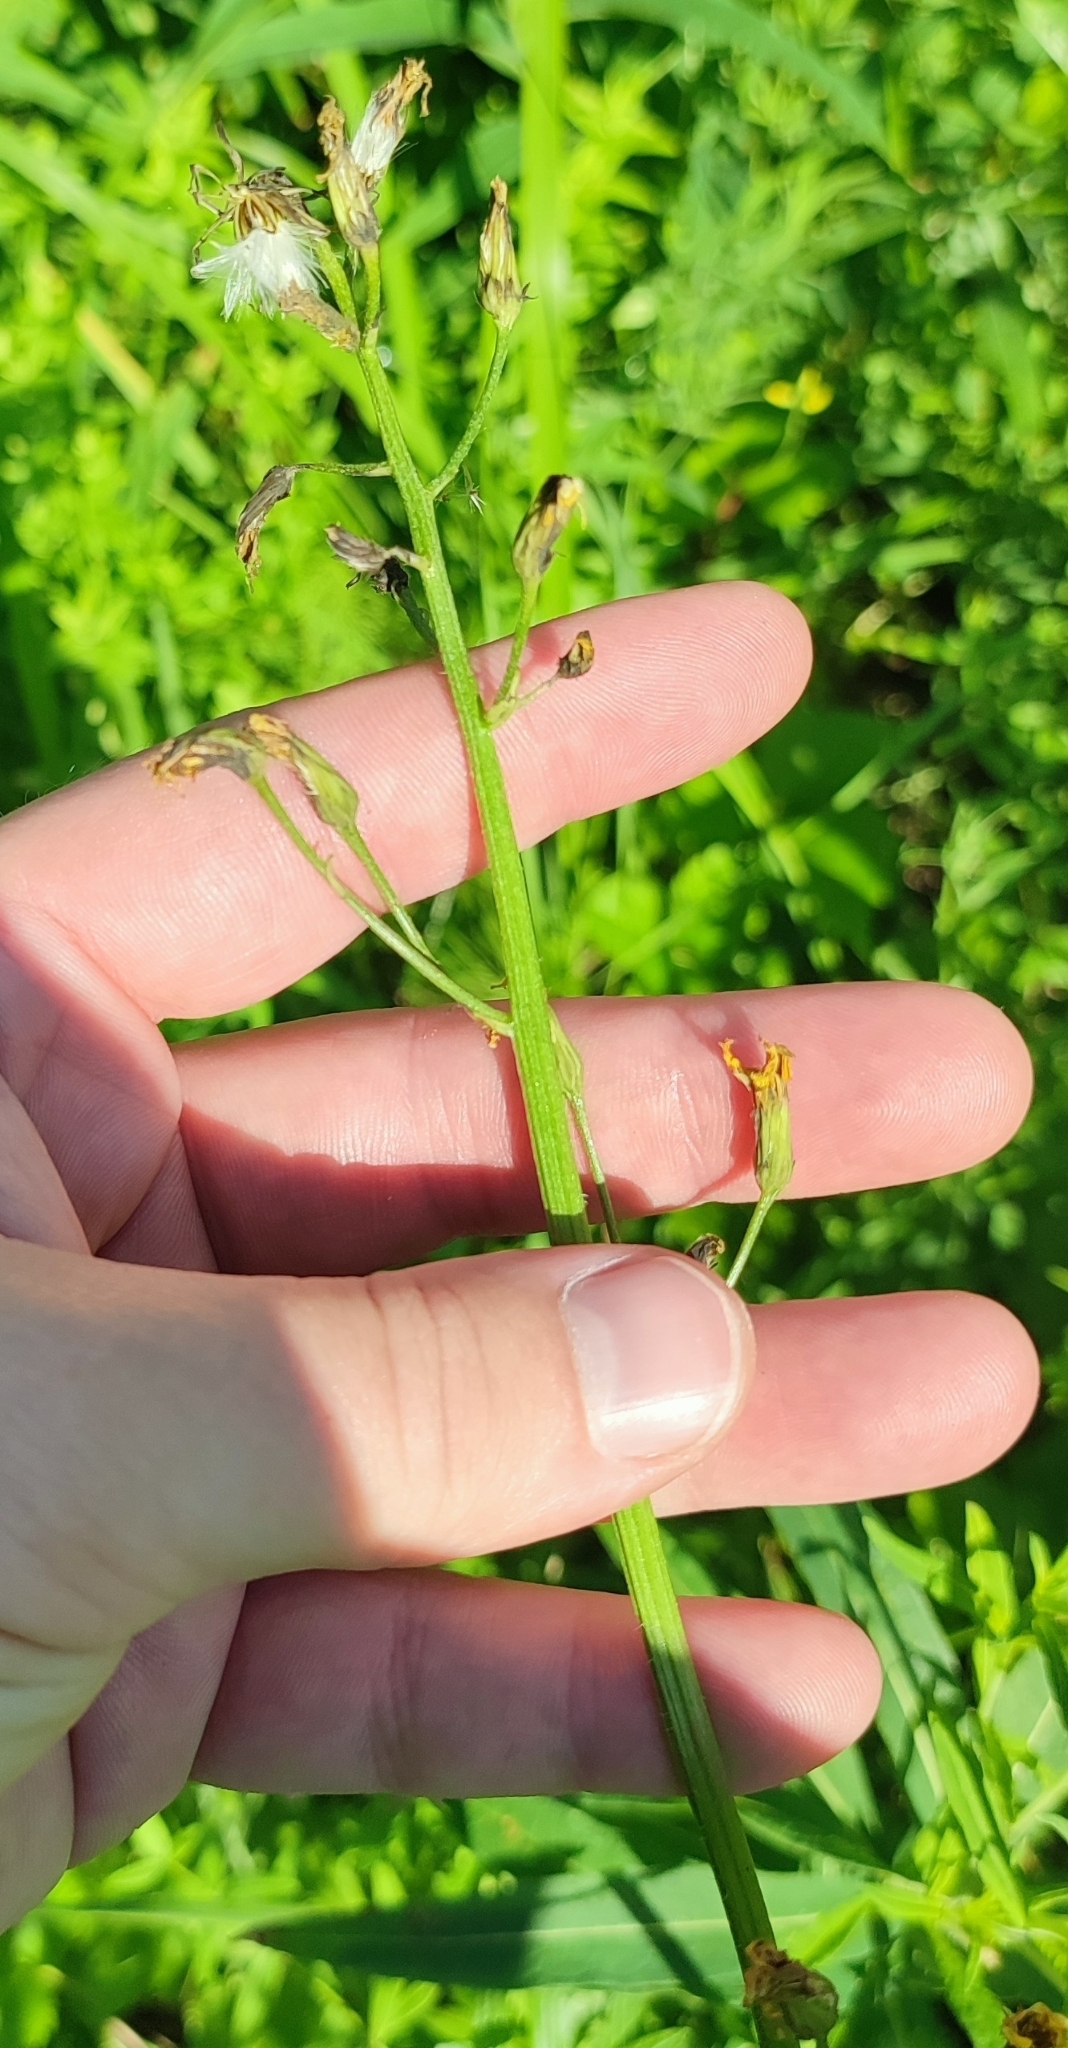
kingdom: Plantae
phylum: Tracheophyta
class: Magnoliopsida
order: Asterales
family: Asteraceae
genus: Crepis
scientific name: Crepis praemorsa
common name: Leafless hawk's-beard
